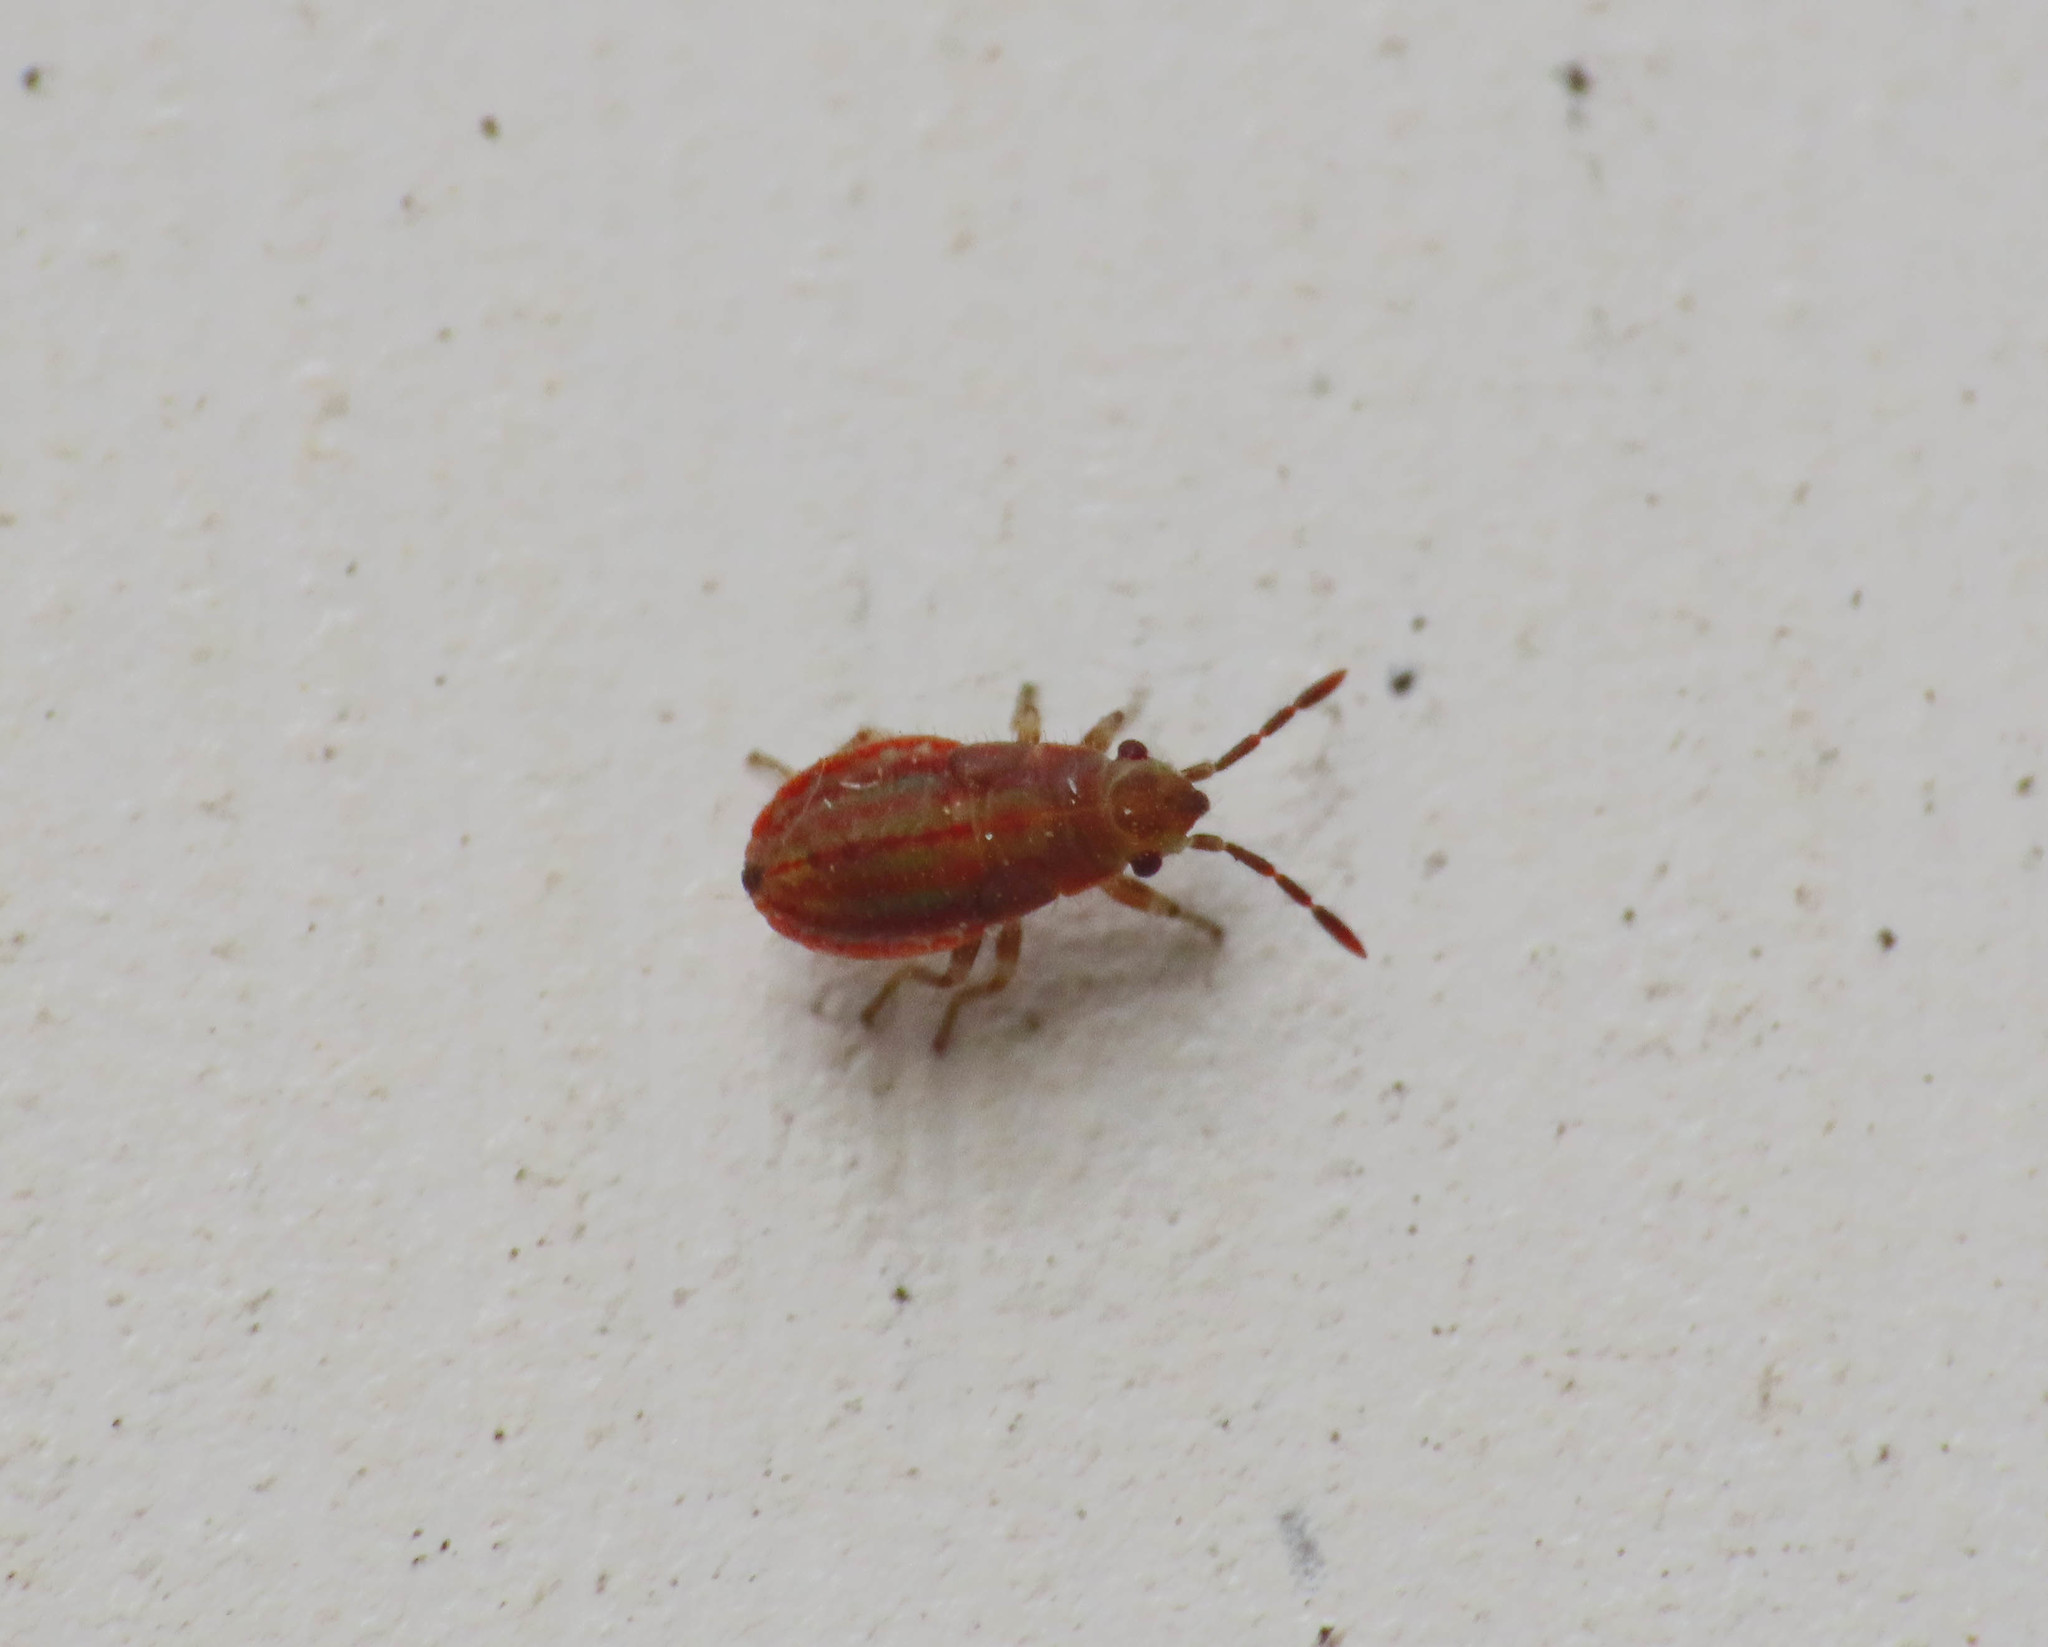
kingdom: Animalia
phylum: Arthropoda
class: Insecta
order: Hemiptera
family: Lygaeidae
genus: Lygaeosoma
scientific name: Lygaeosoma sardeum
